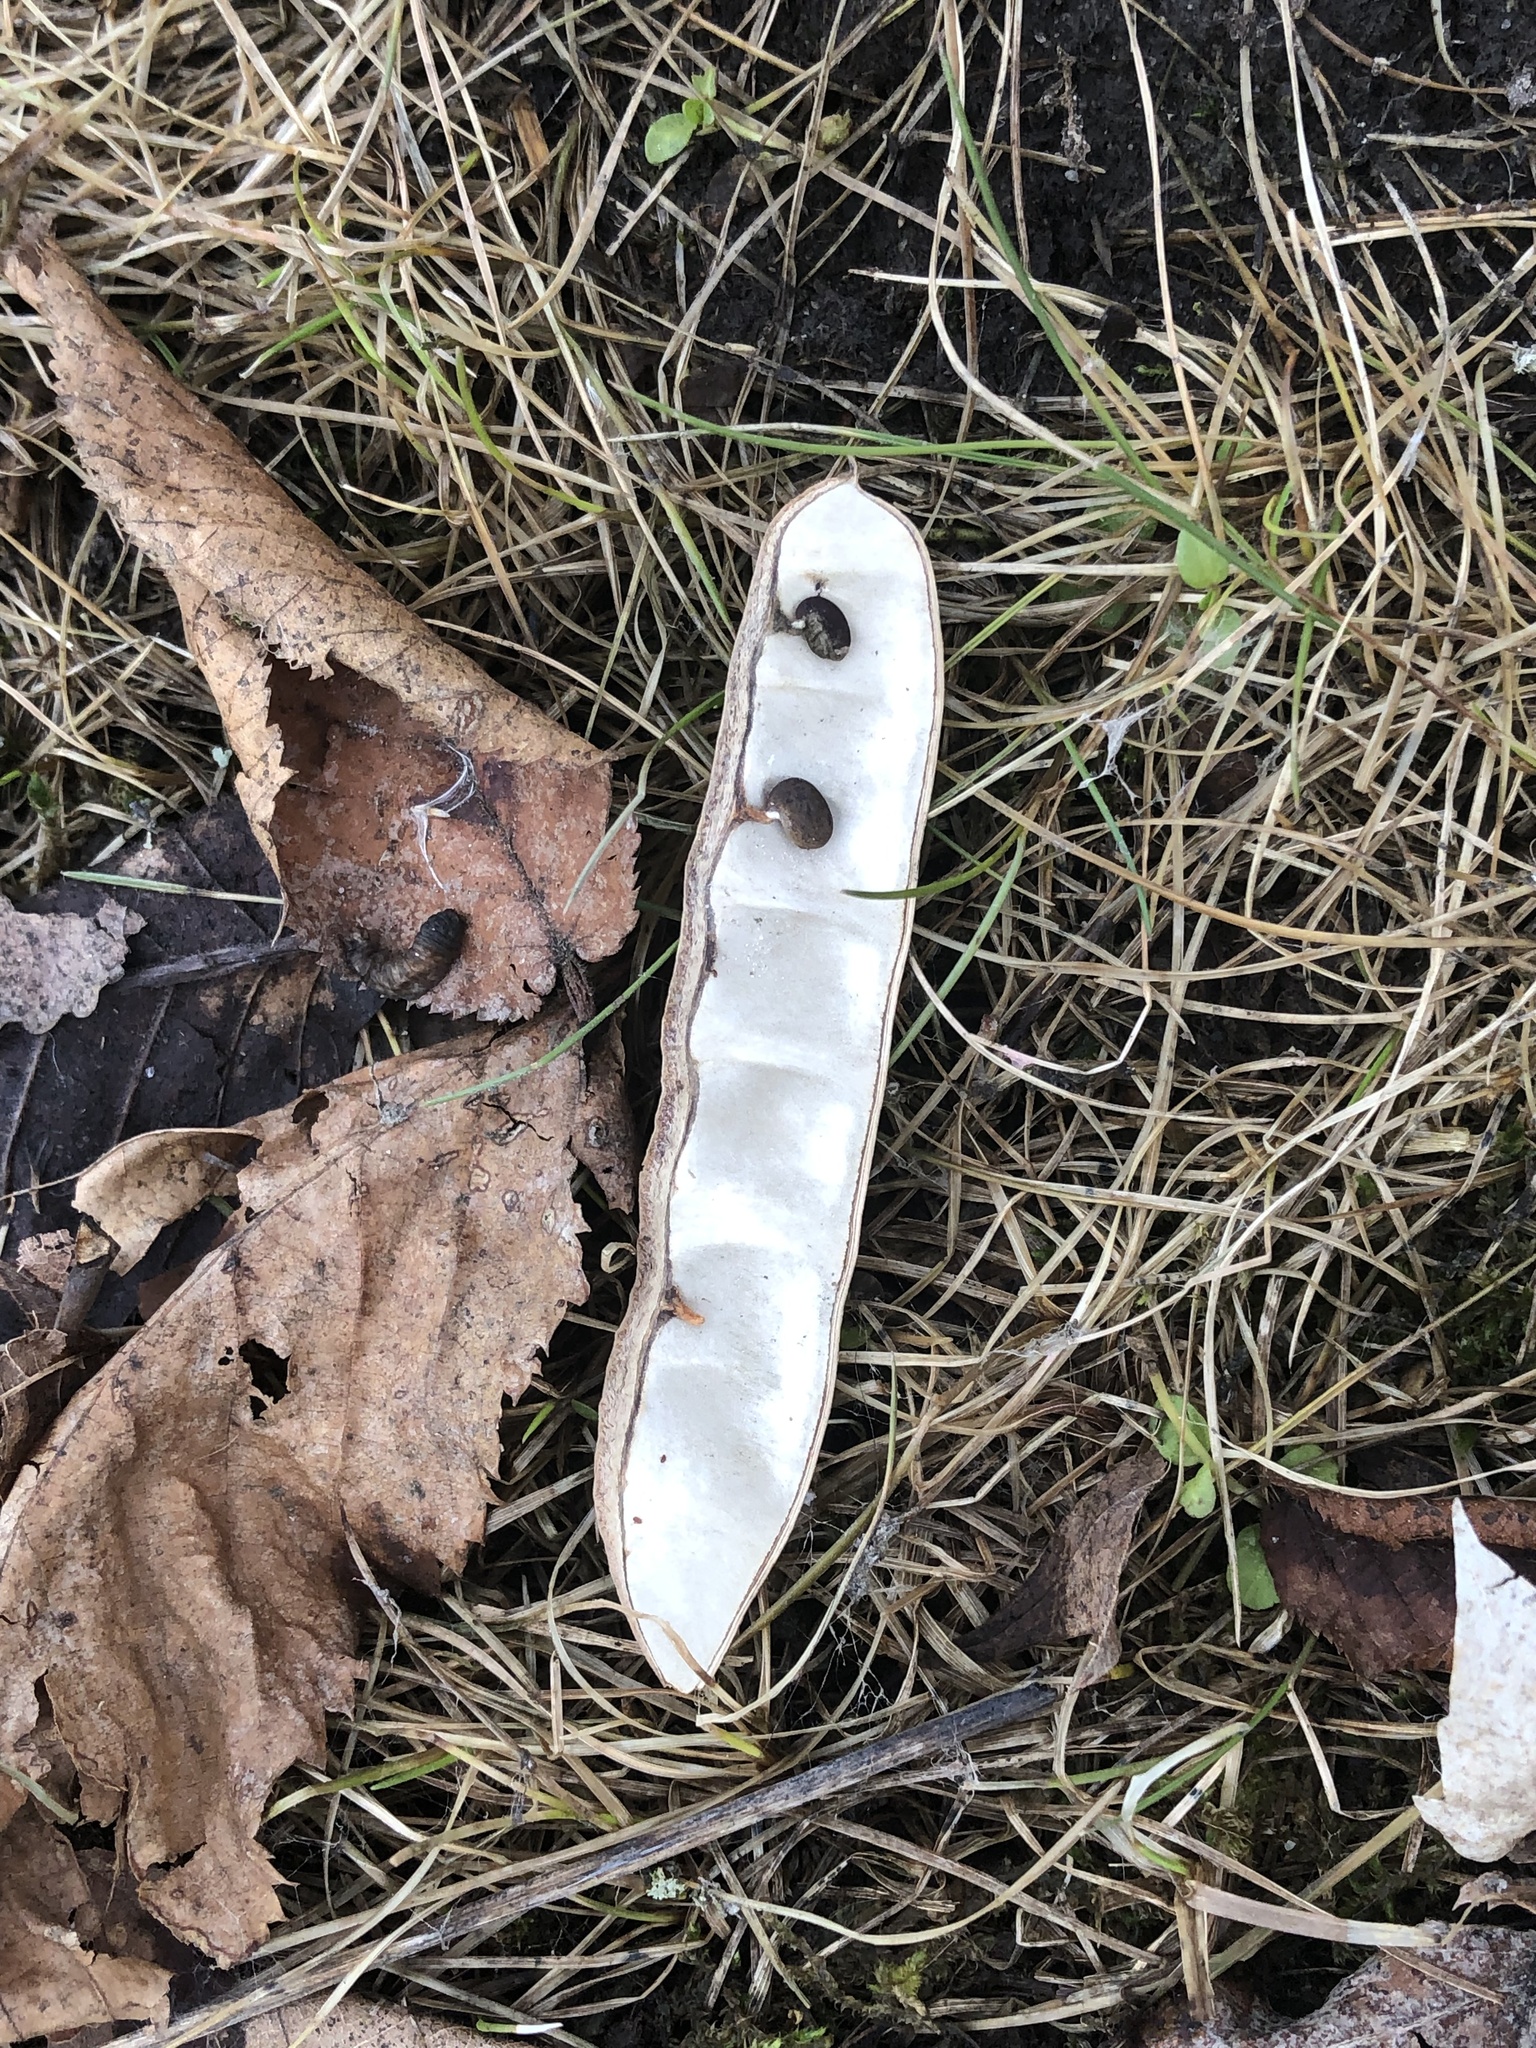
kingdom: Plantae
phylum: Tracheophyta
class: Magnoliopsida
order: Fabales
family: Fabaceae
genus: Robinia
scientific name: Robinia pseudoacacia
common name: Black locust
